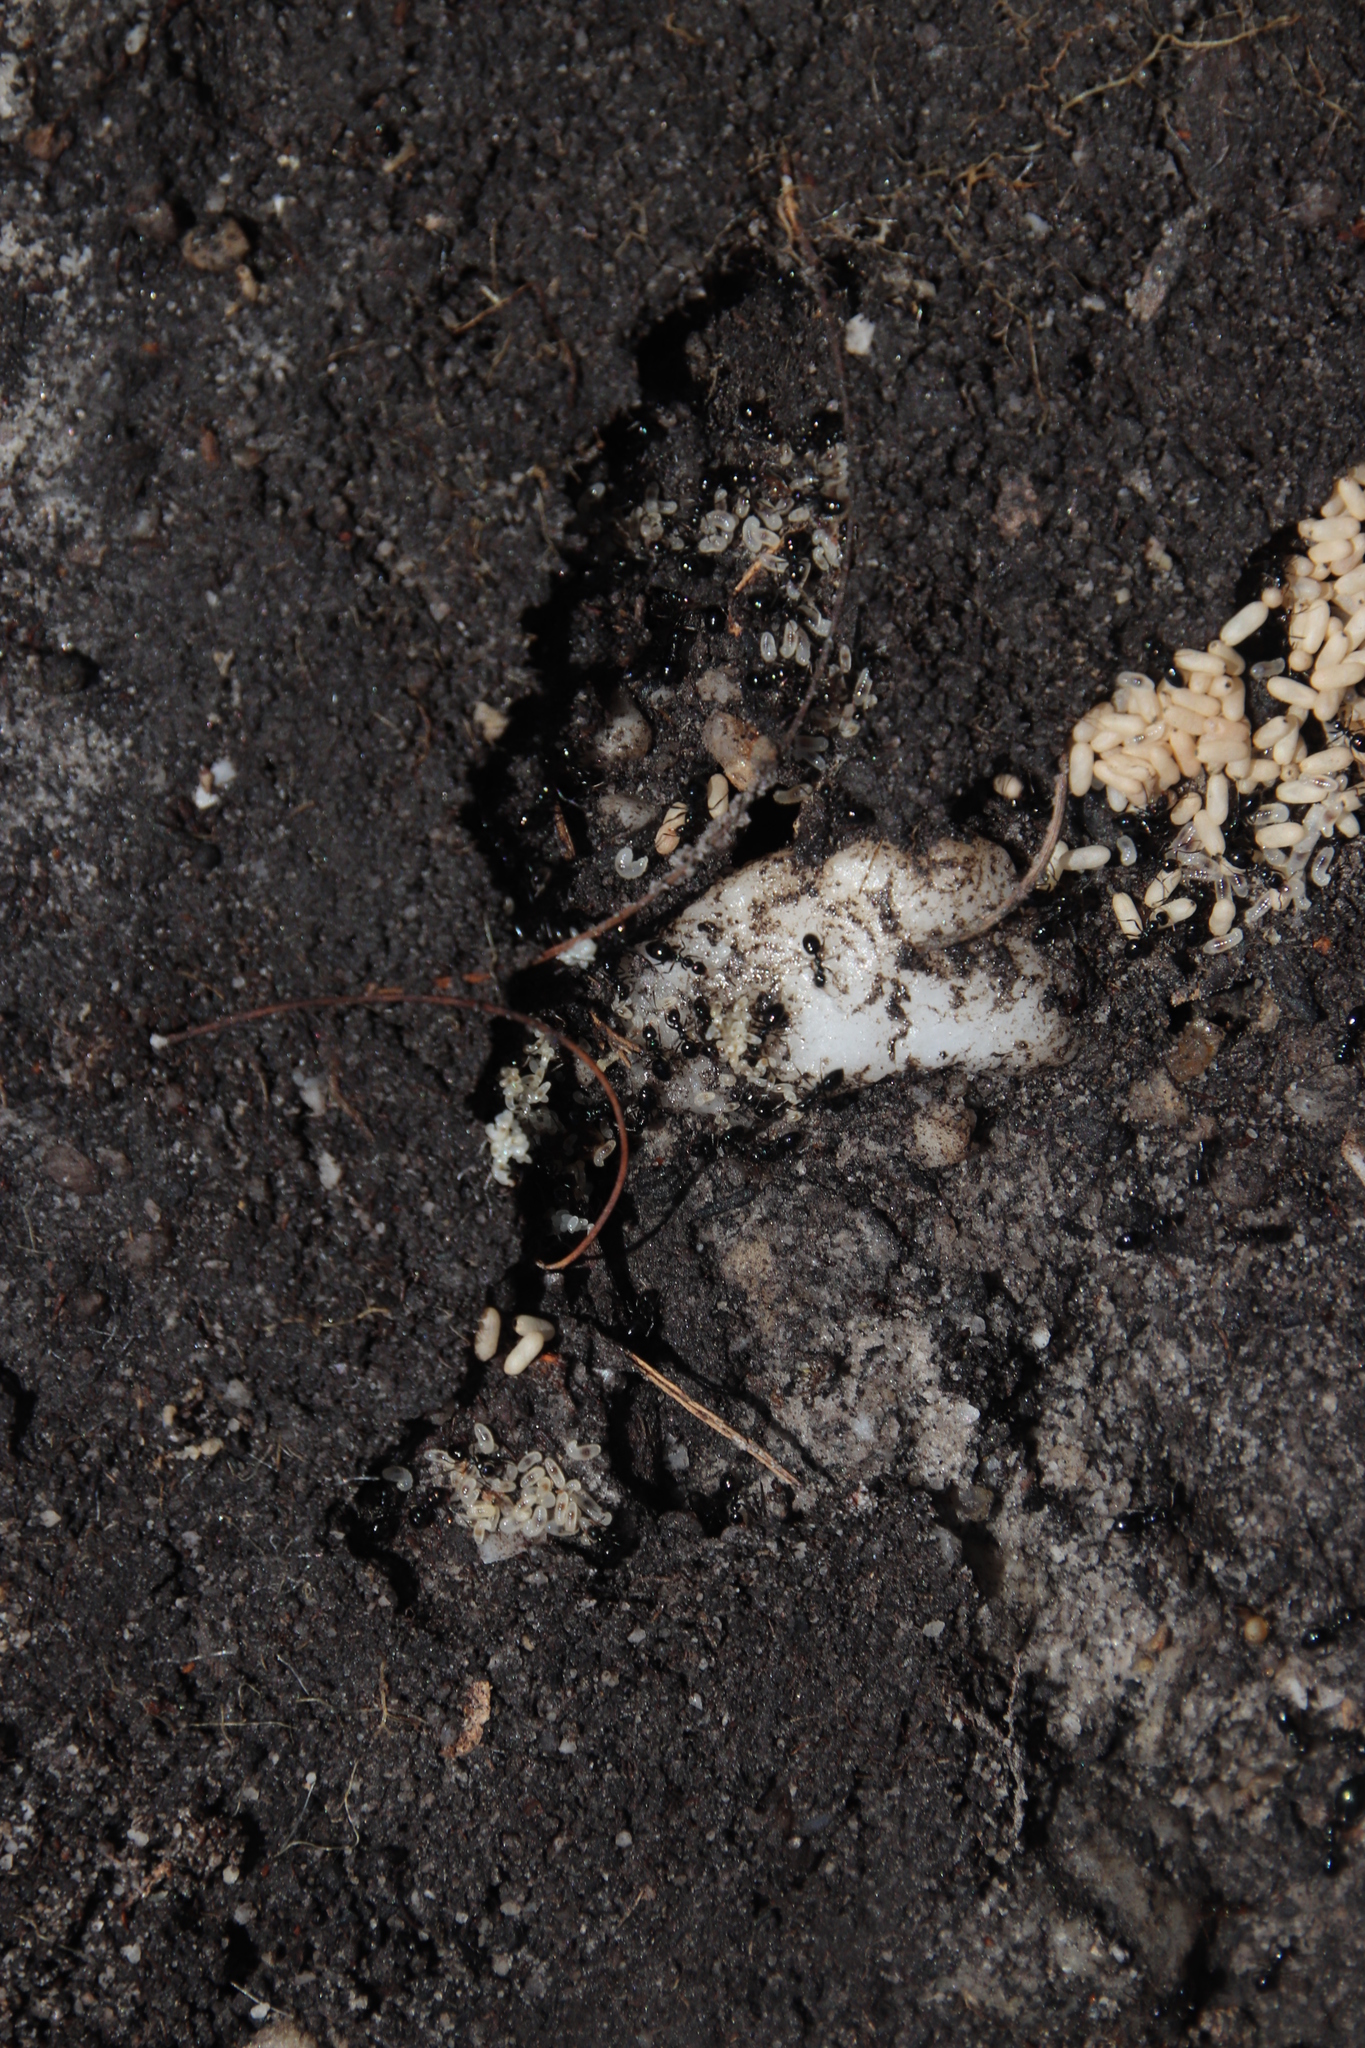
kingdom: Animalia
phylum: Arthropoda
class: Insecta
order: Hymenoptera
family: Formicidae
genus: Lepisiota
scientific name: Lepisiota capensis
